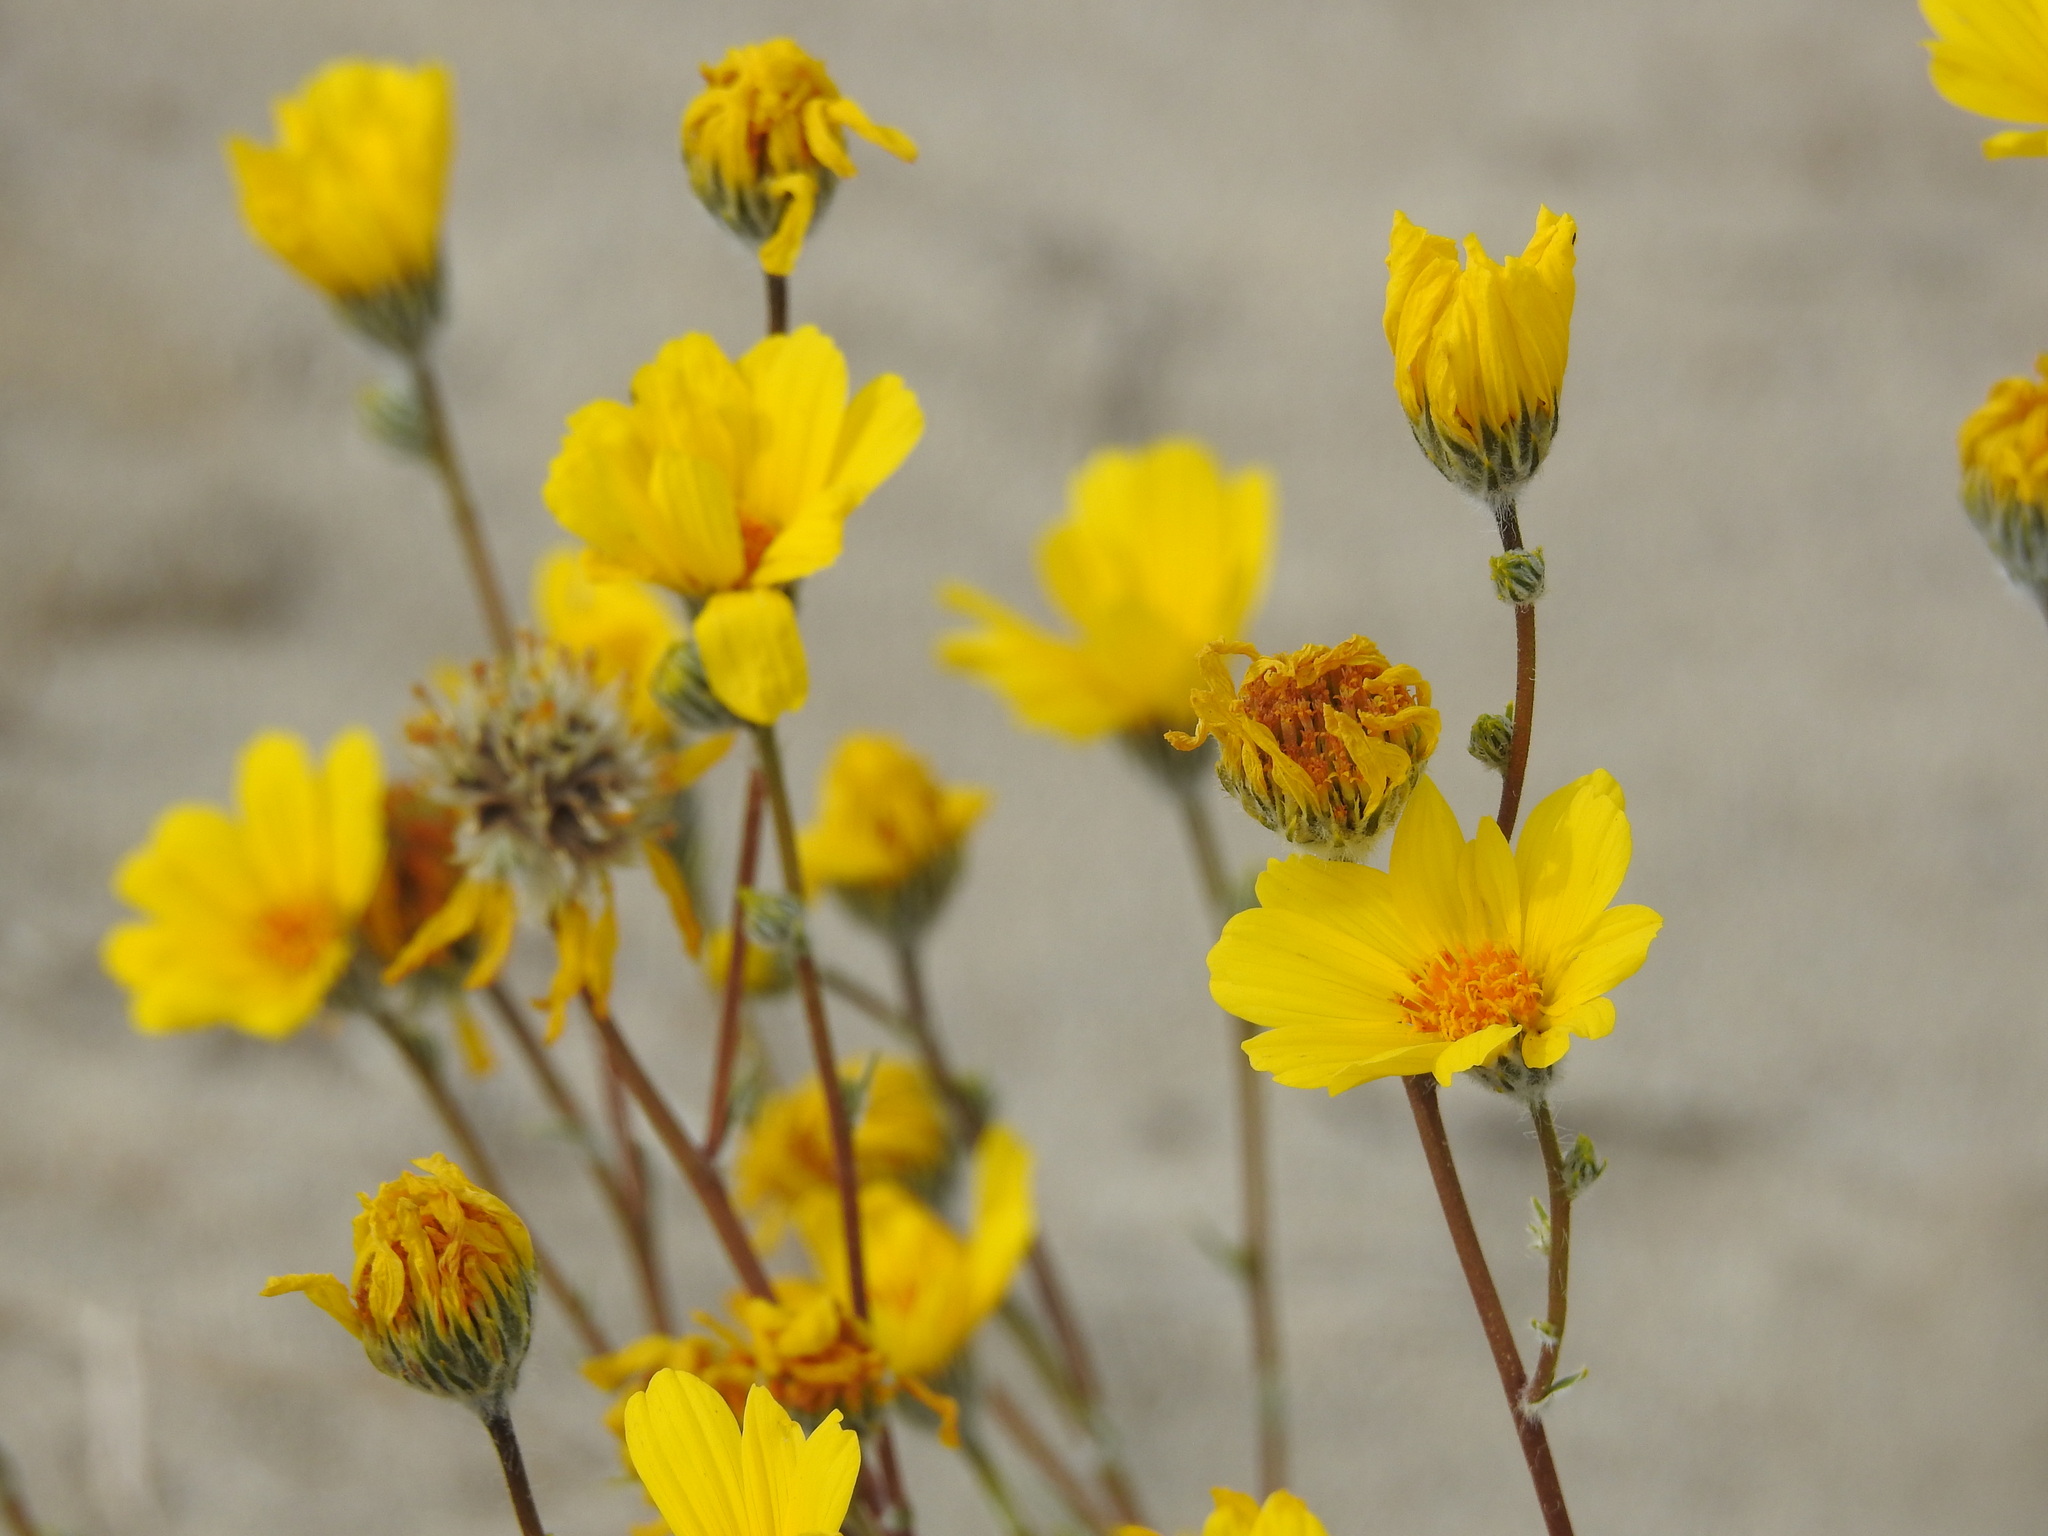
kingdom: Plantae
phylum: Tracheophyta
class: Magnoliopsida
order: Asterales
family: Asteraceae
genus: Geraea
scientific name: Geraea canescens
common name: Desert-gold
